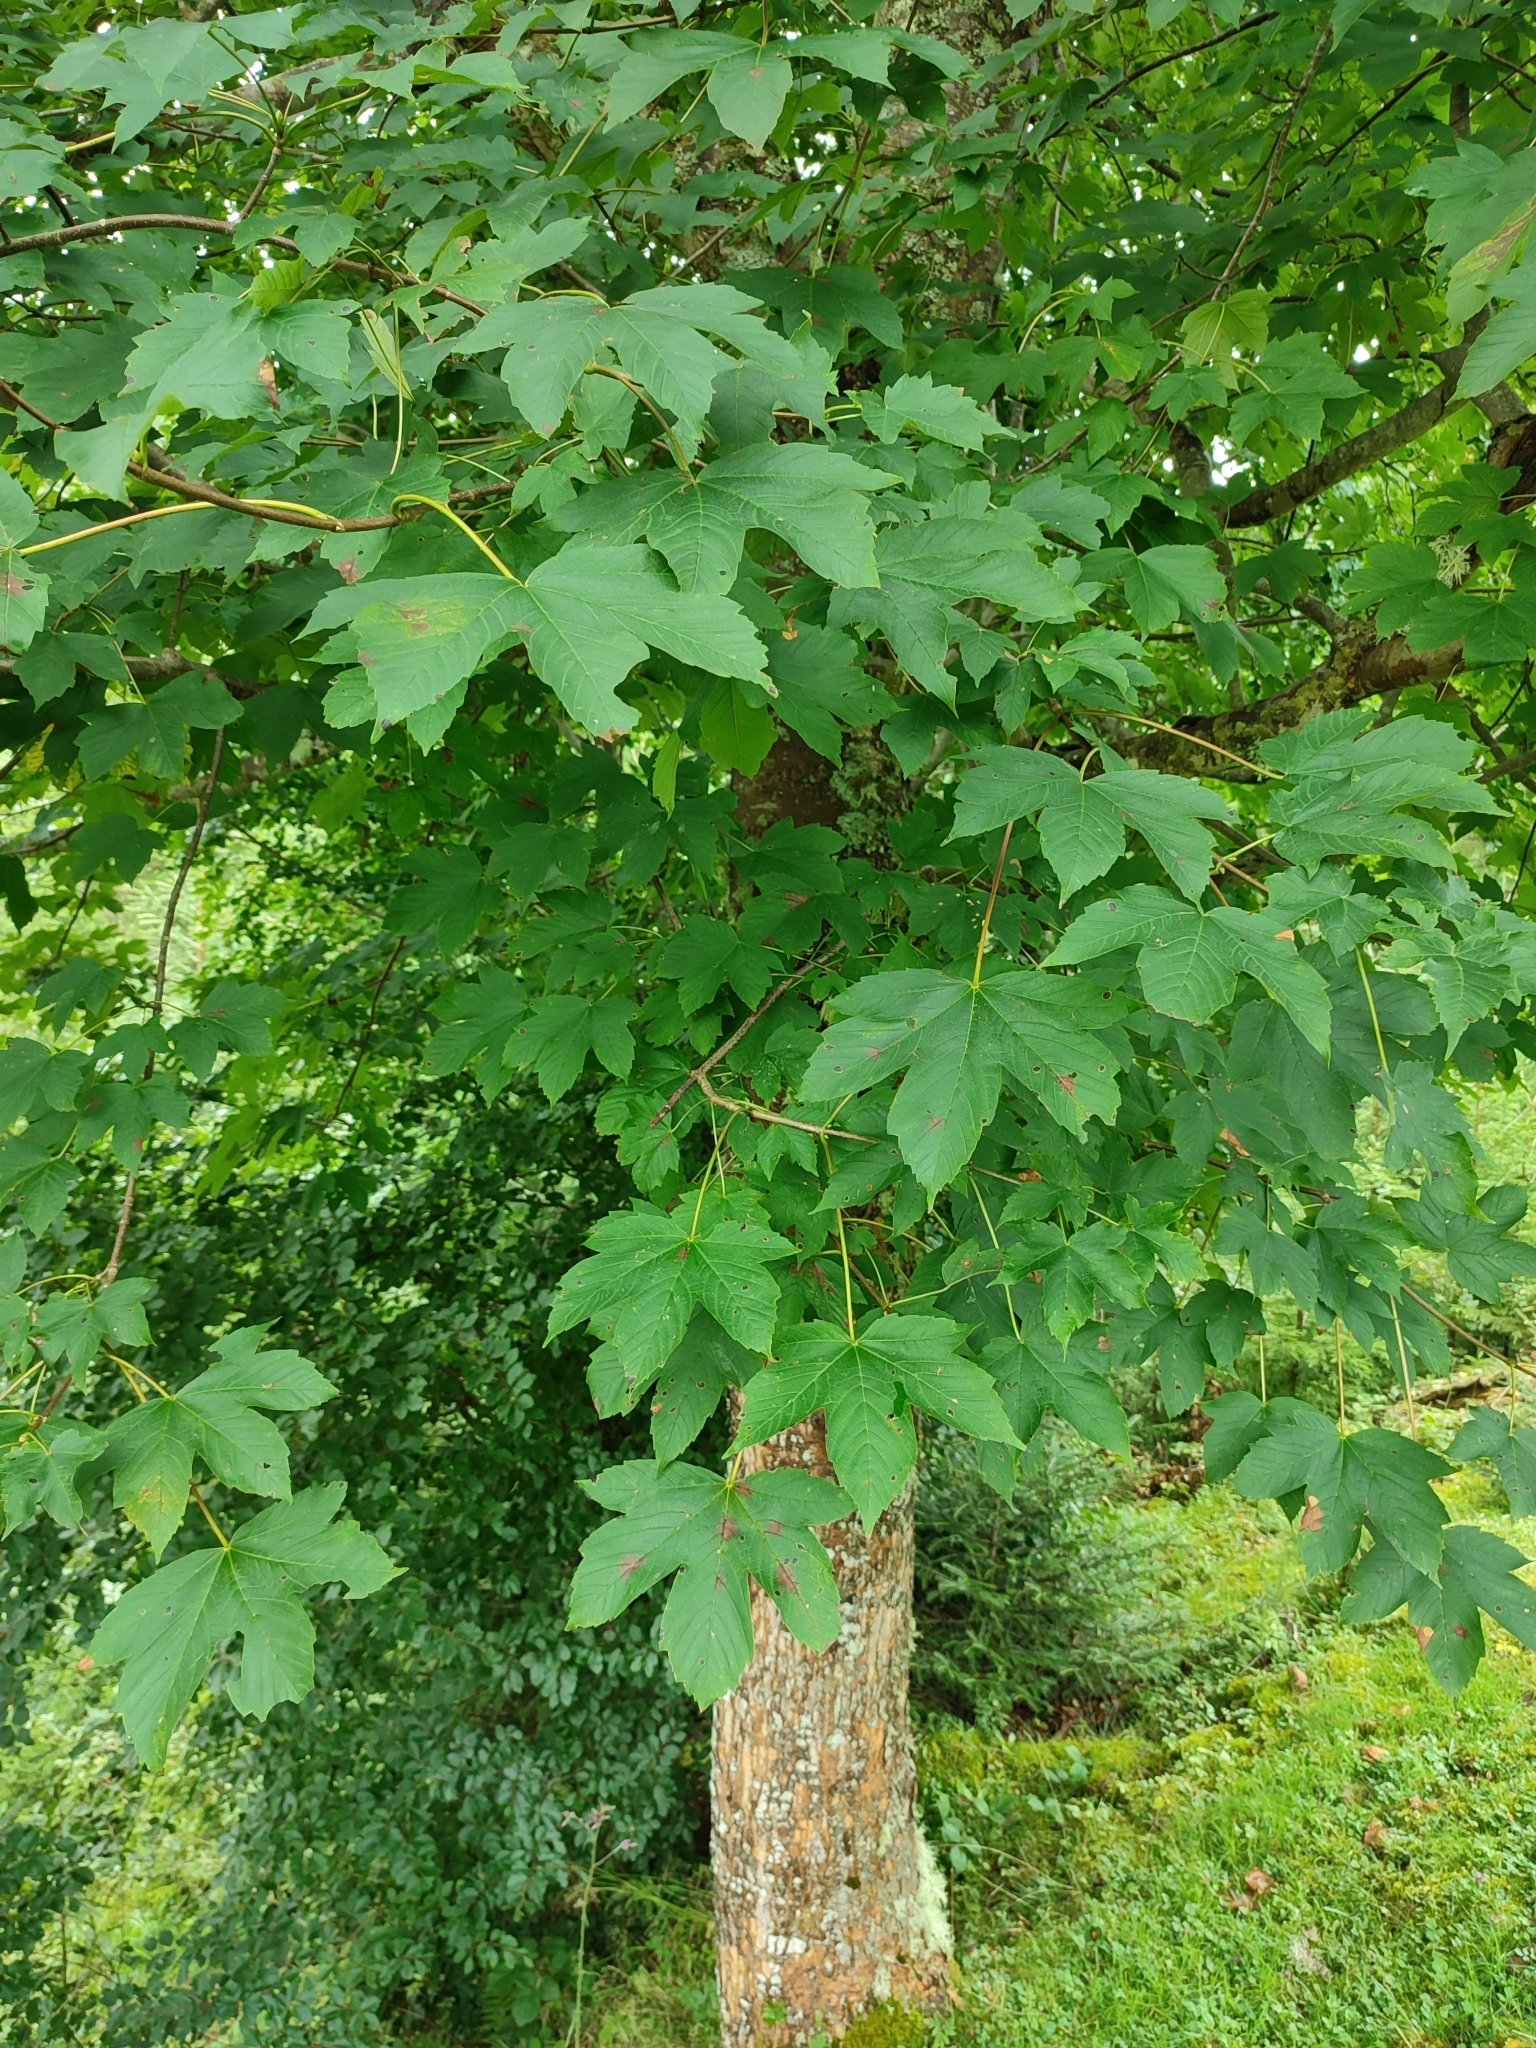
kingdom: Plantae
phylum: Tracheophyta
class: Magnoliopsida
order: Sapindales
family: Sapindaceae
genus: Acer
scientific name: Acer pseudoplatanus
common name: Sycamore
